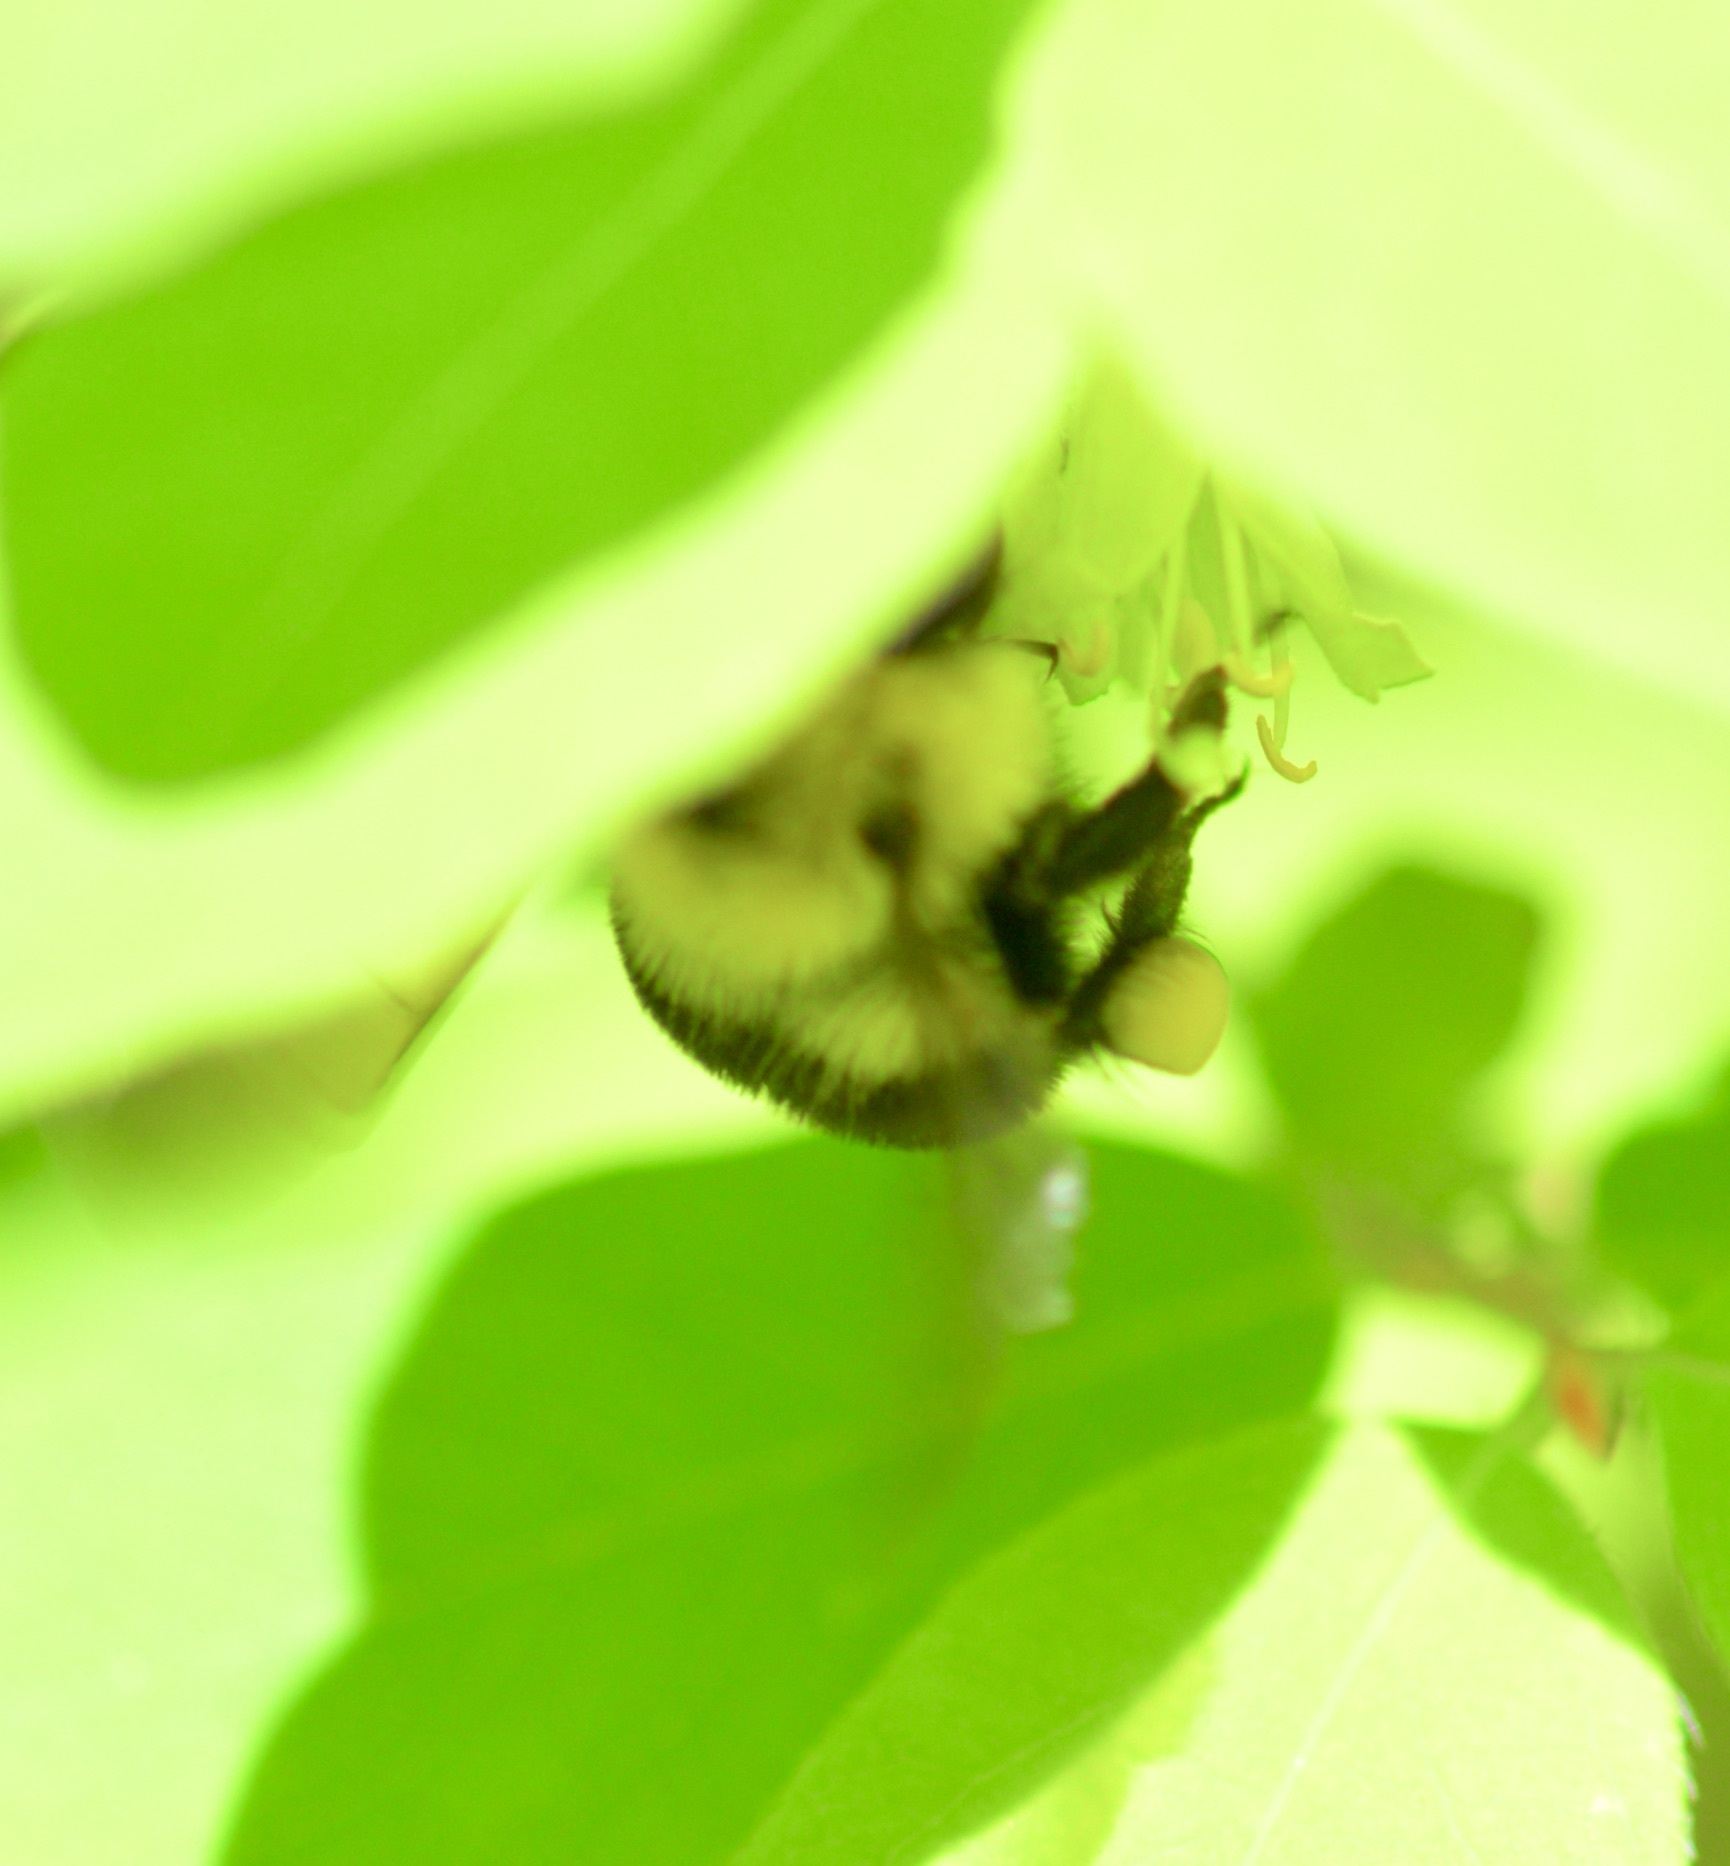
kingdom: Animalia
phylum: Arthropoda
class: Insecta
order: Hymenoptera
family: Apidae
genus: Bombus
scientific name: Bombus bimaculatus
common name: Two-spotted bumble bee
